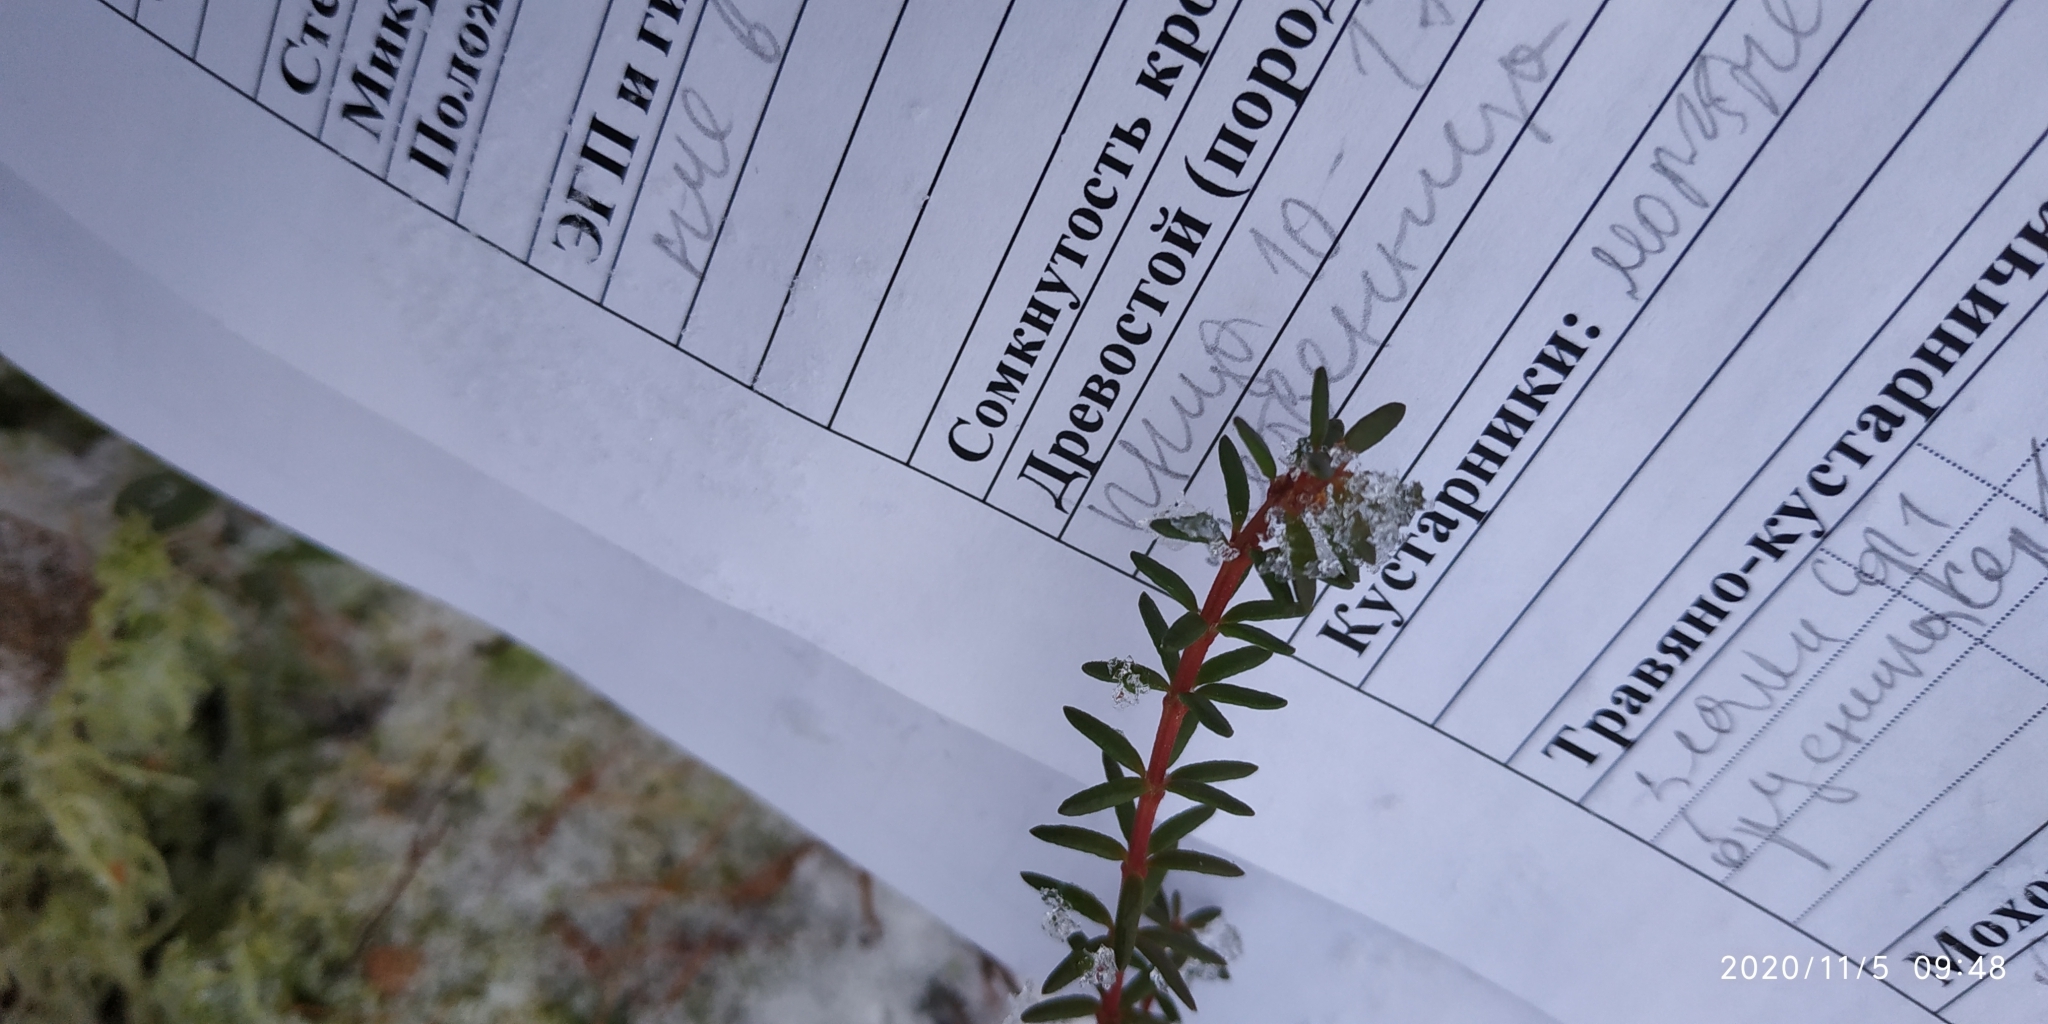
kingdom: Plantae
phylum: Tracheophyta
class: Magnoliopsida
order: Ericales
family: Ericaceae
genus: Empetrum
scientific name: Empetrum nigrum
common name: Black crowberry
